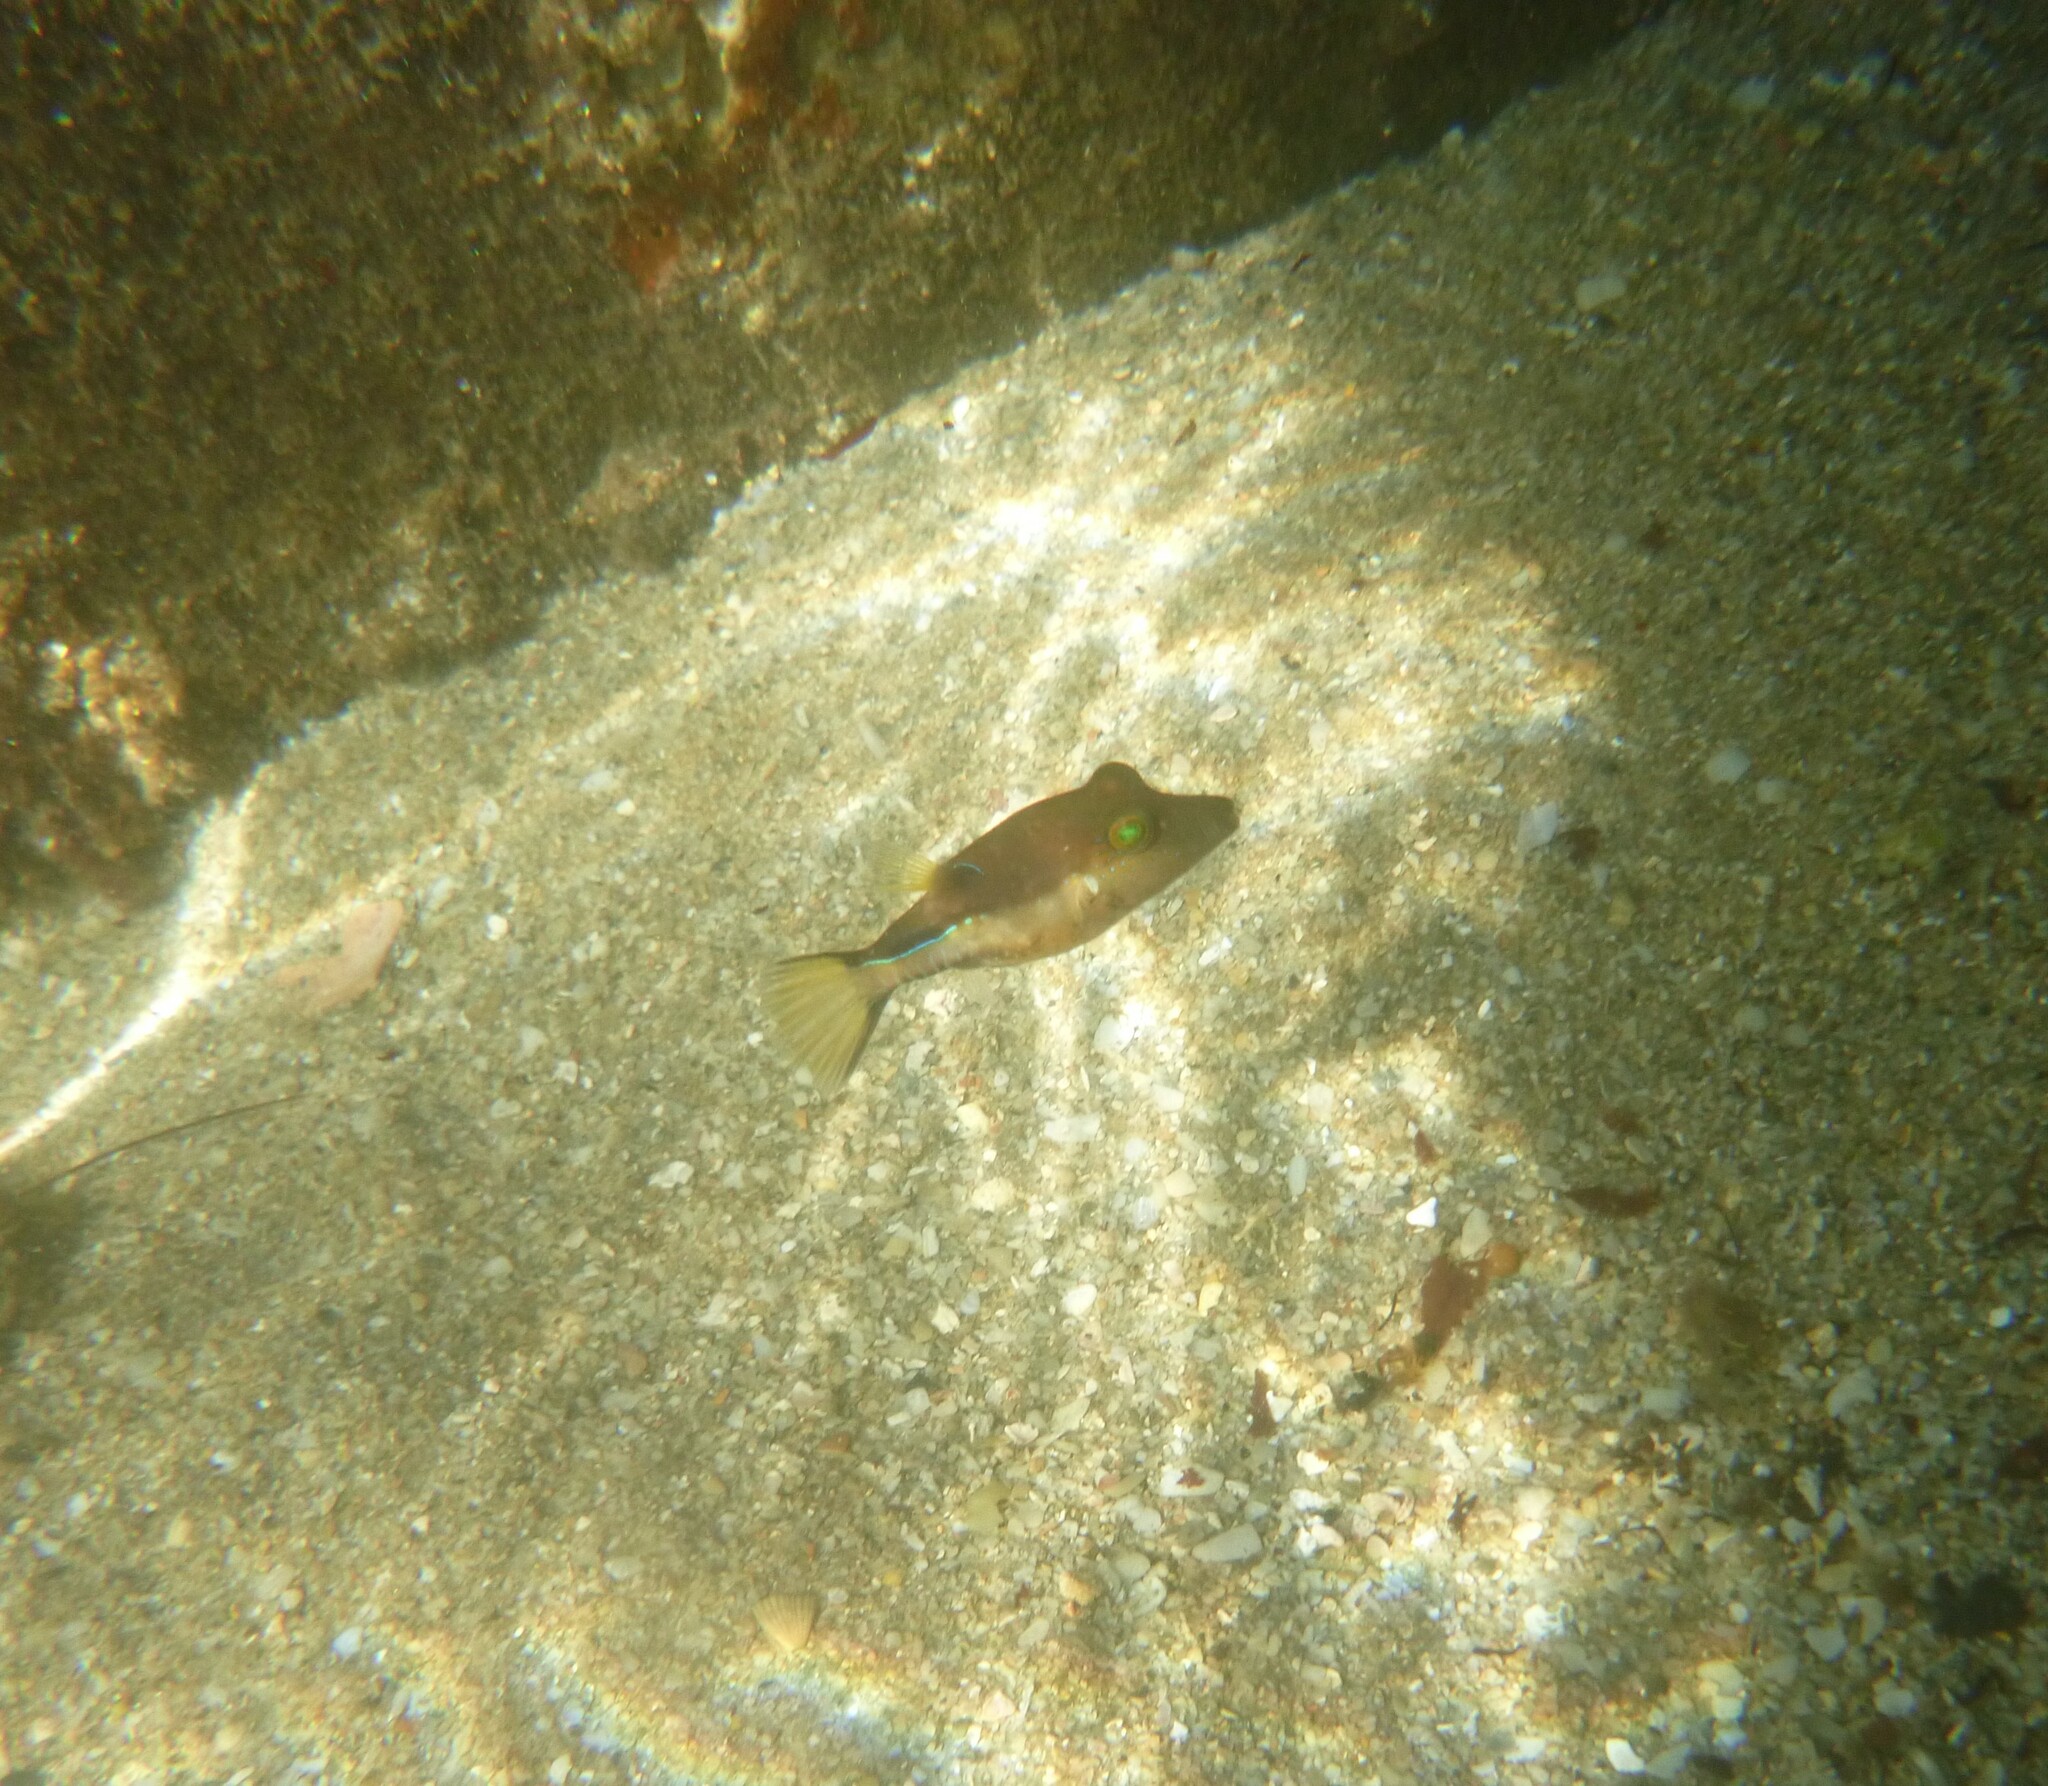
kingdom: Animalia
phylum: Chordata
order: Tetraodontiformes
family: Tetraodontidae
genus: Canthigaster
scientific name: Canthigaster rostrata
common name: Caribbean sharpnose-puffer
